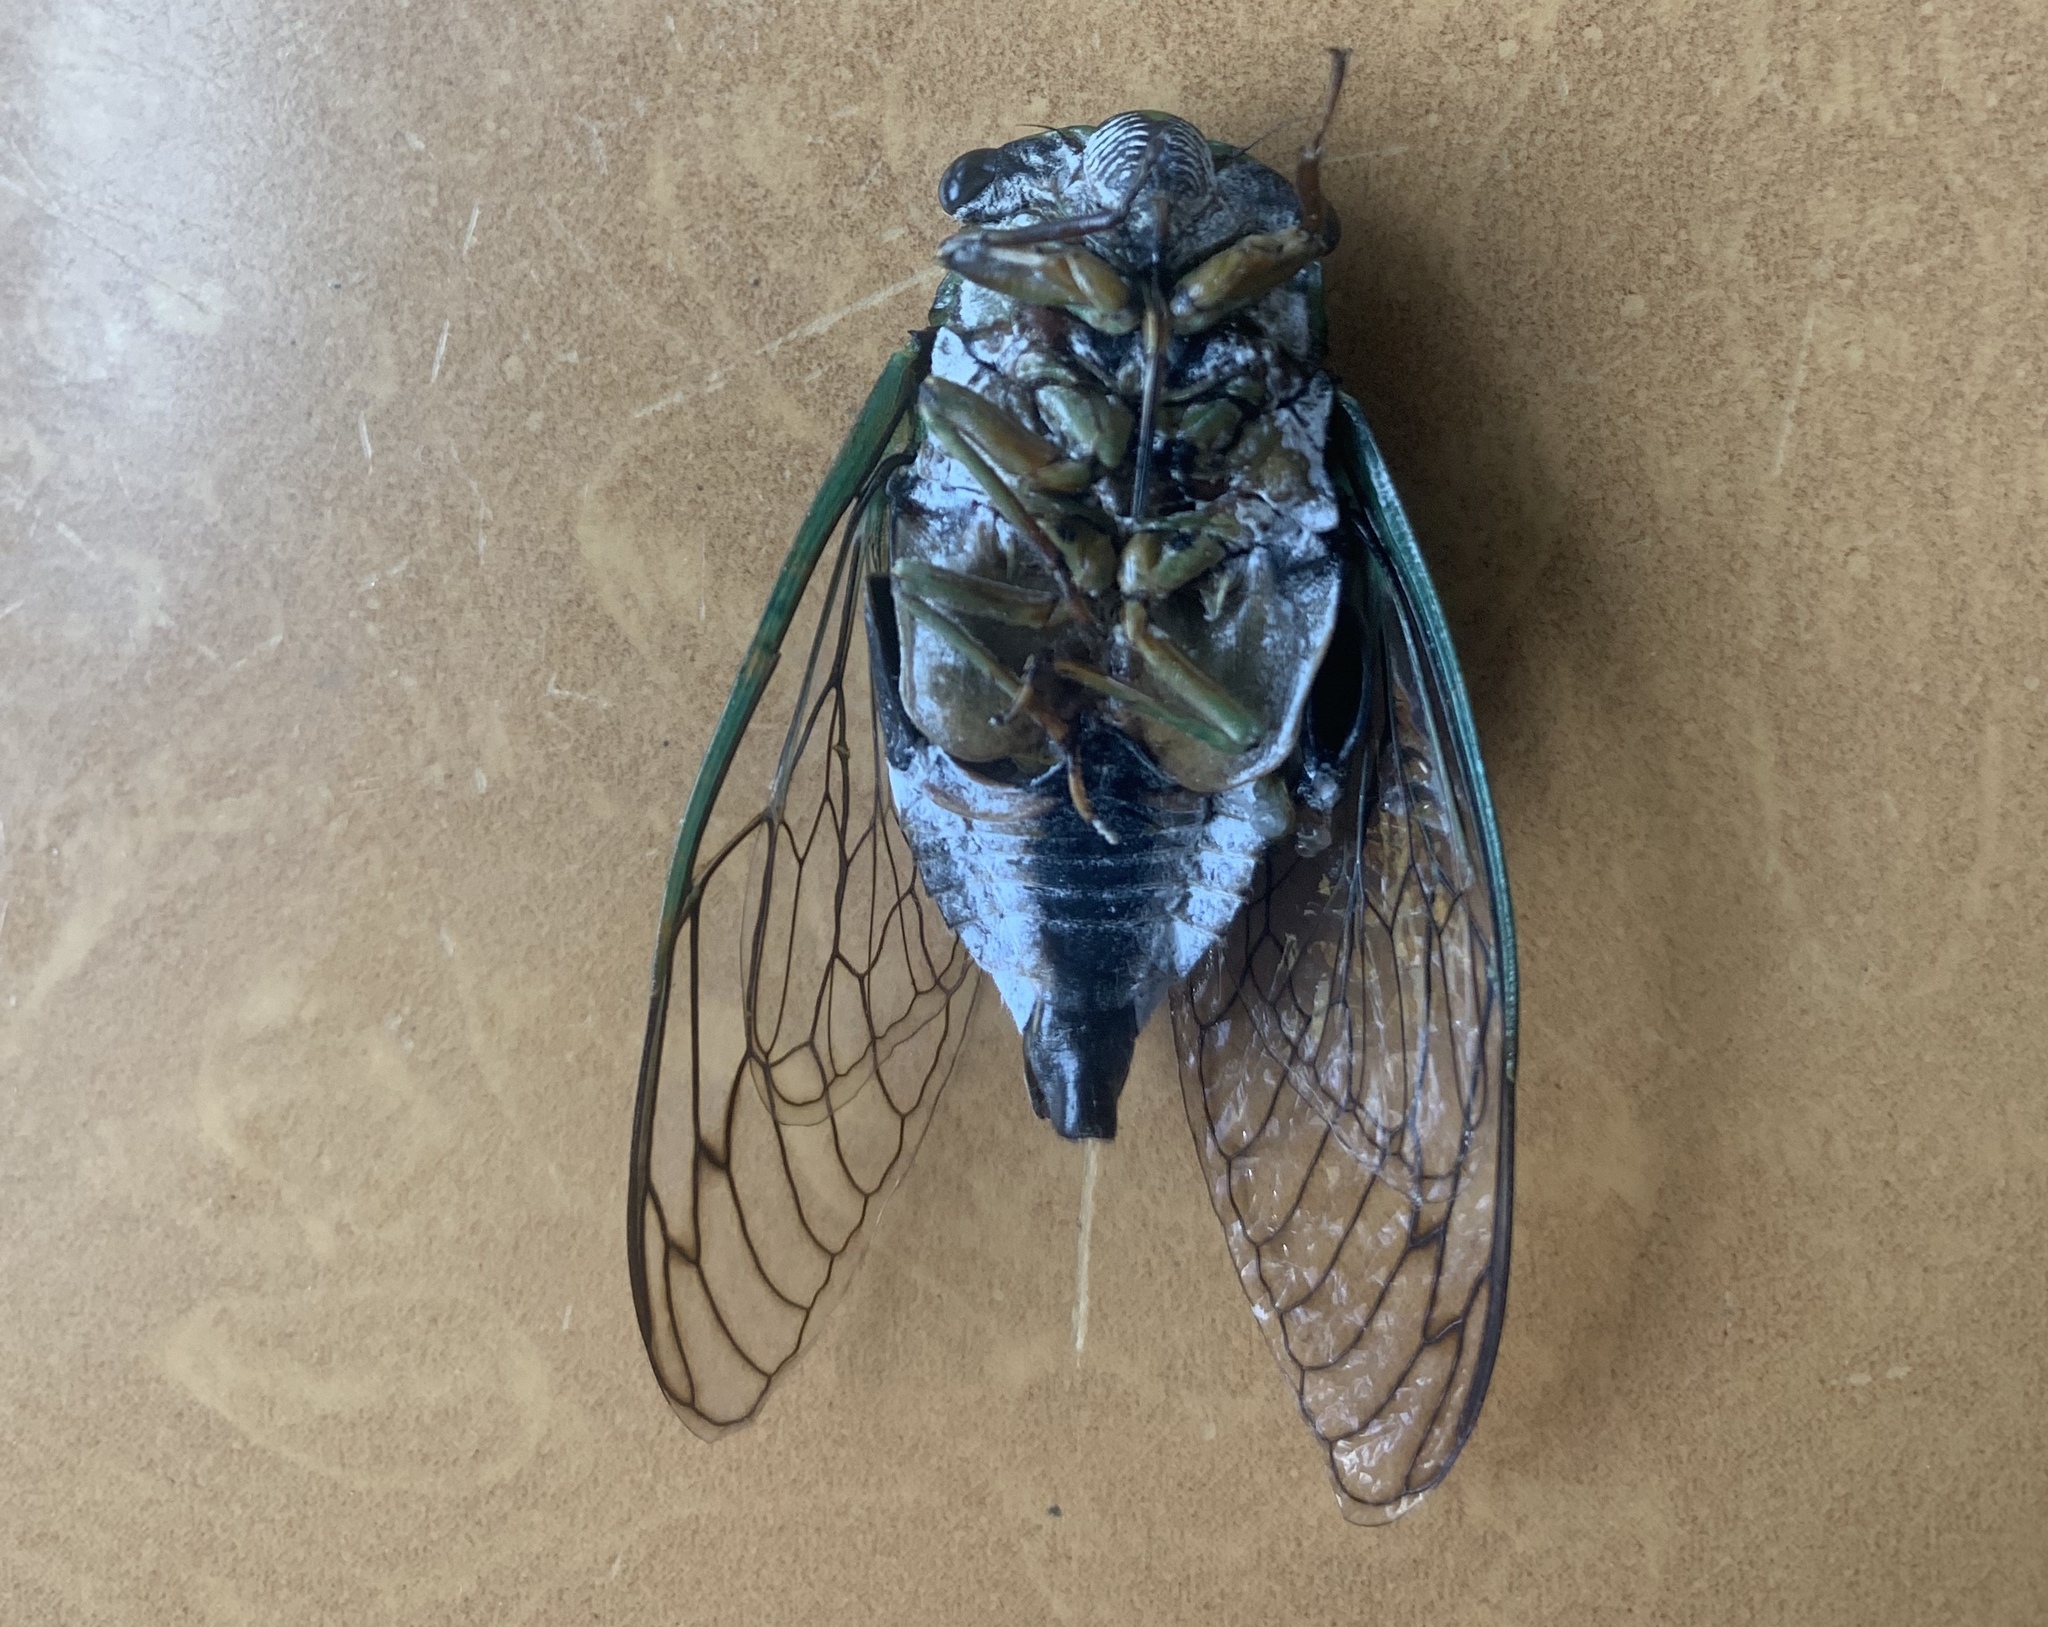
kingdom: Animalia
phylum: Arthropoda
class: Insecta
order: Hemiptera
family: Cicadidae
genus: Neotibicen
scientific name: Neotibicen latifasciatus
